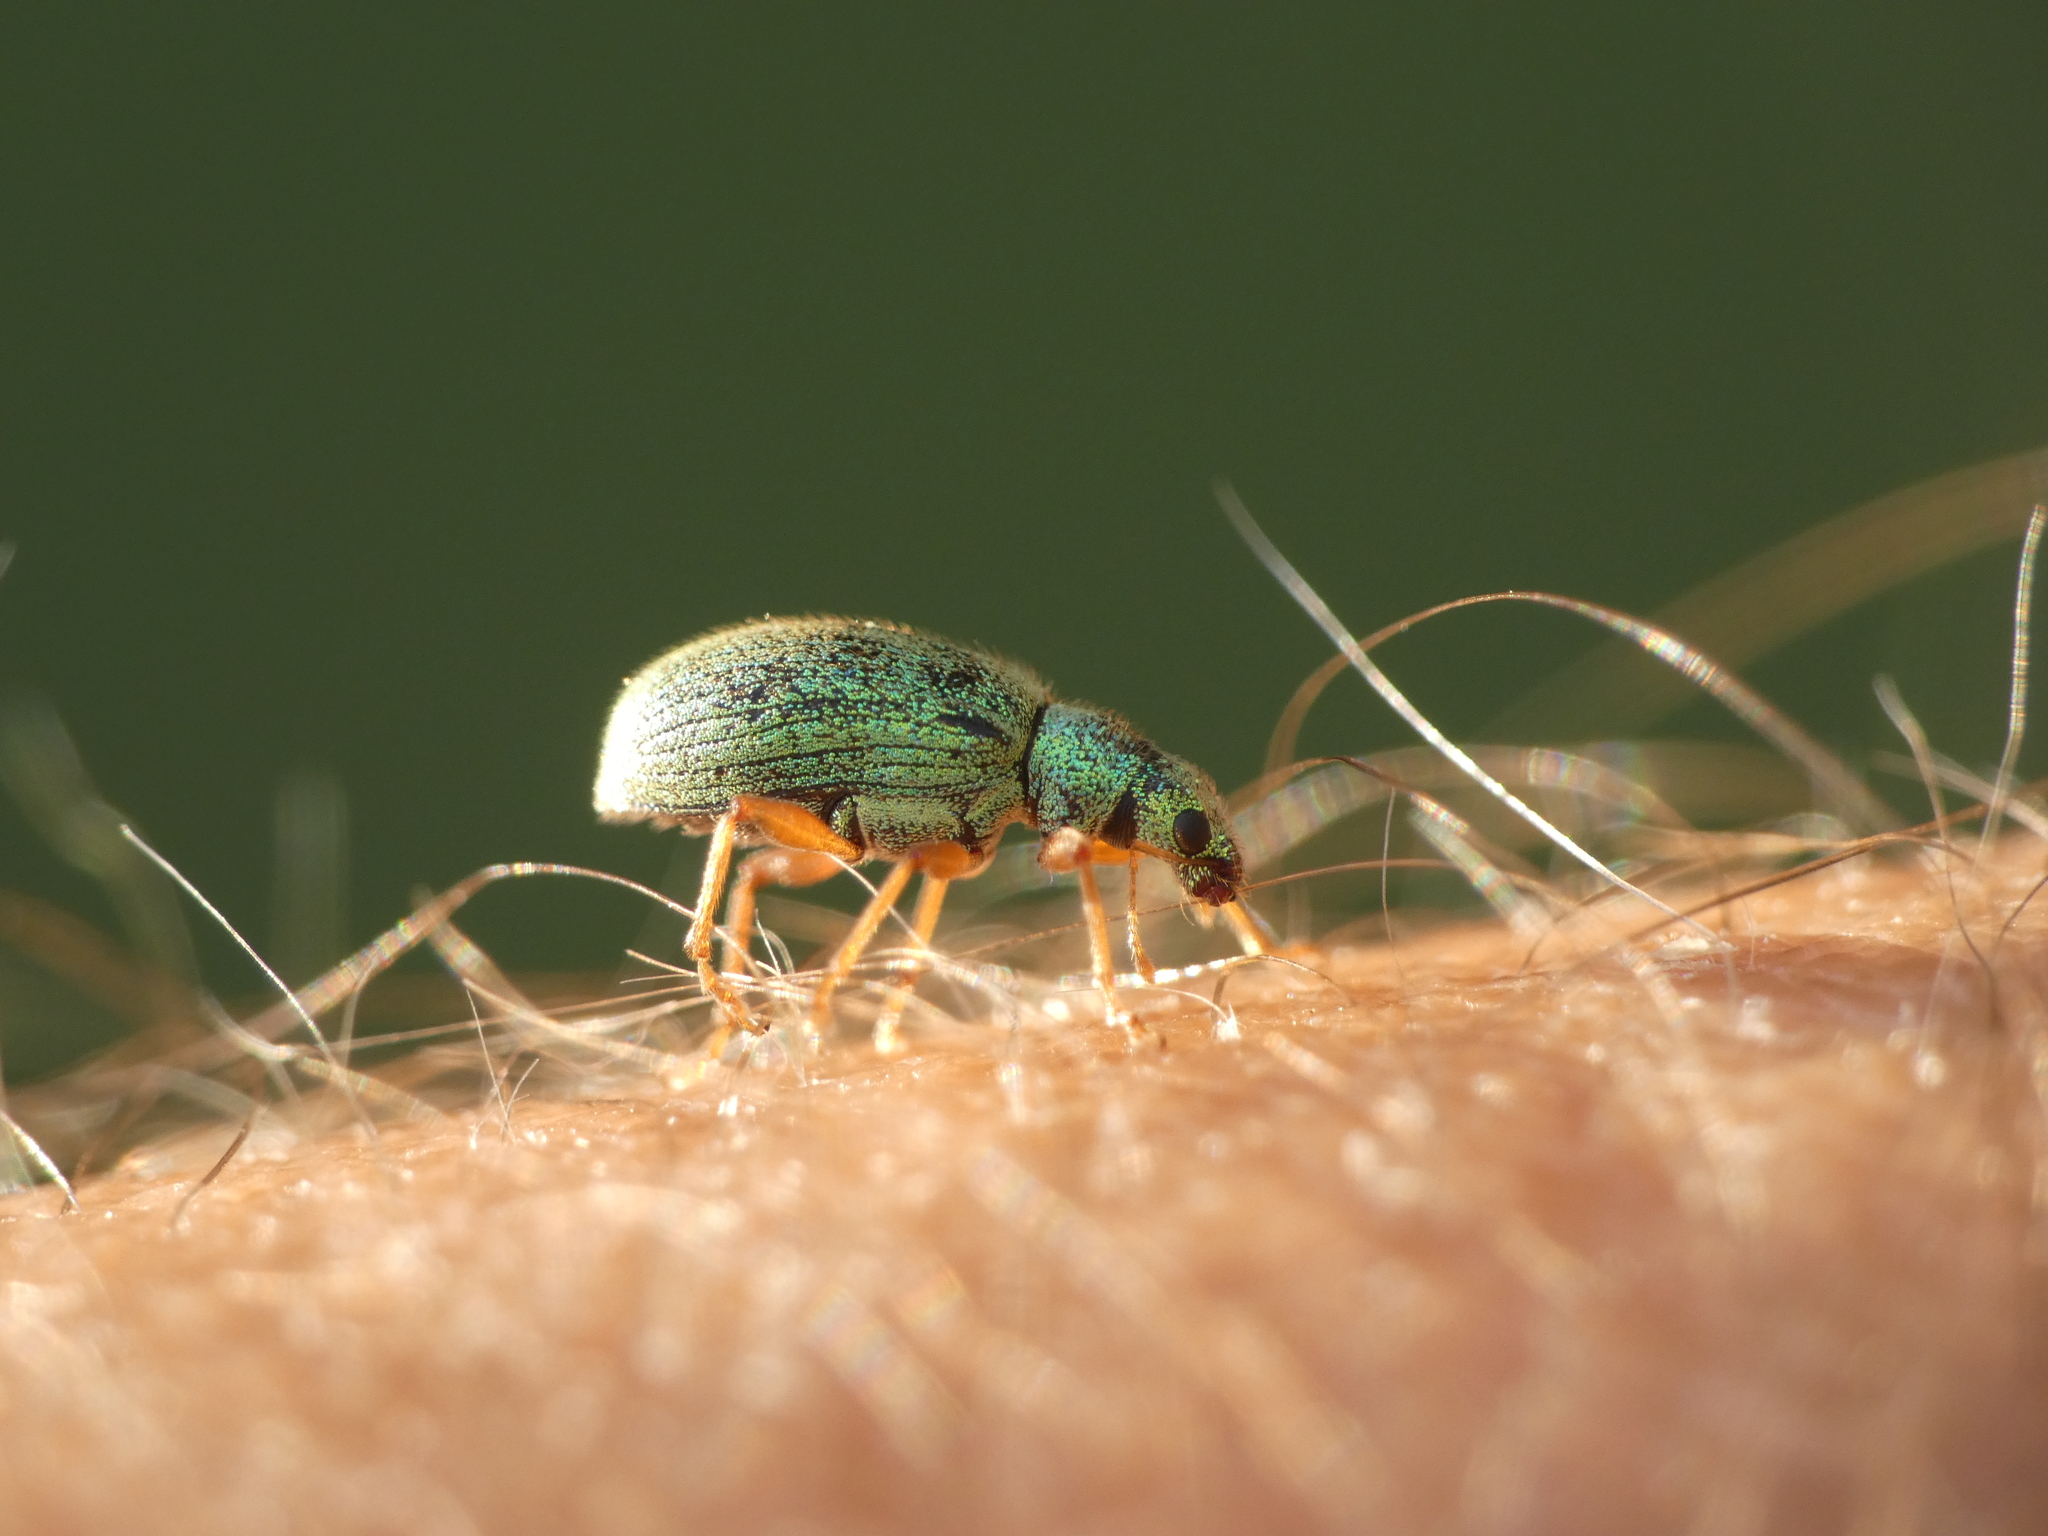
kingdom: Animalia
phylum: Arthropoda
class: Insecta
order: Coleoptera
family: Curculionidae
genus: Polydrusus
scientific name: Polydrusus pterygomalis
